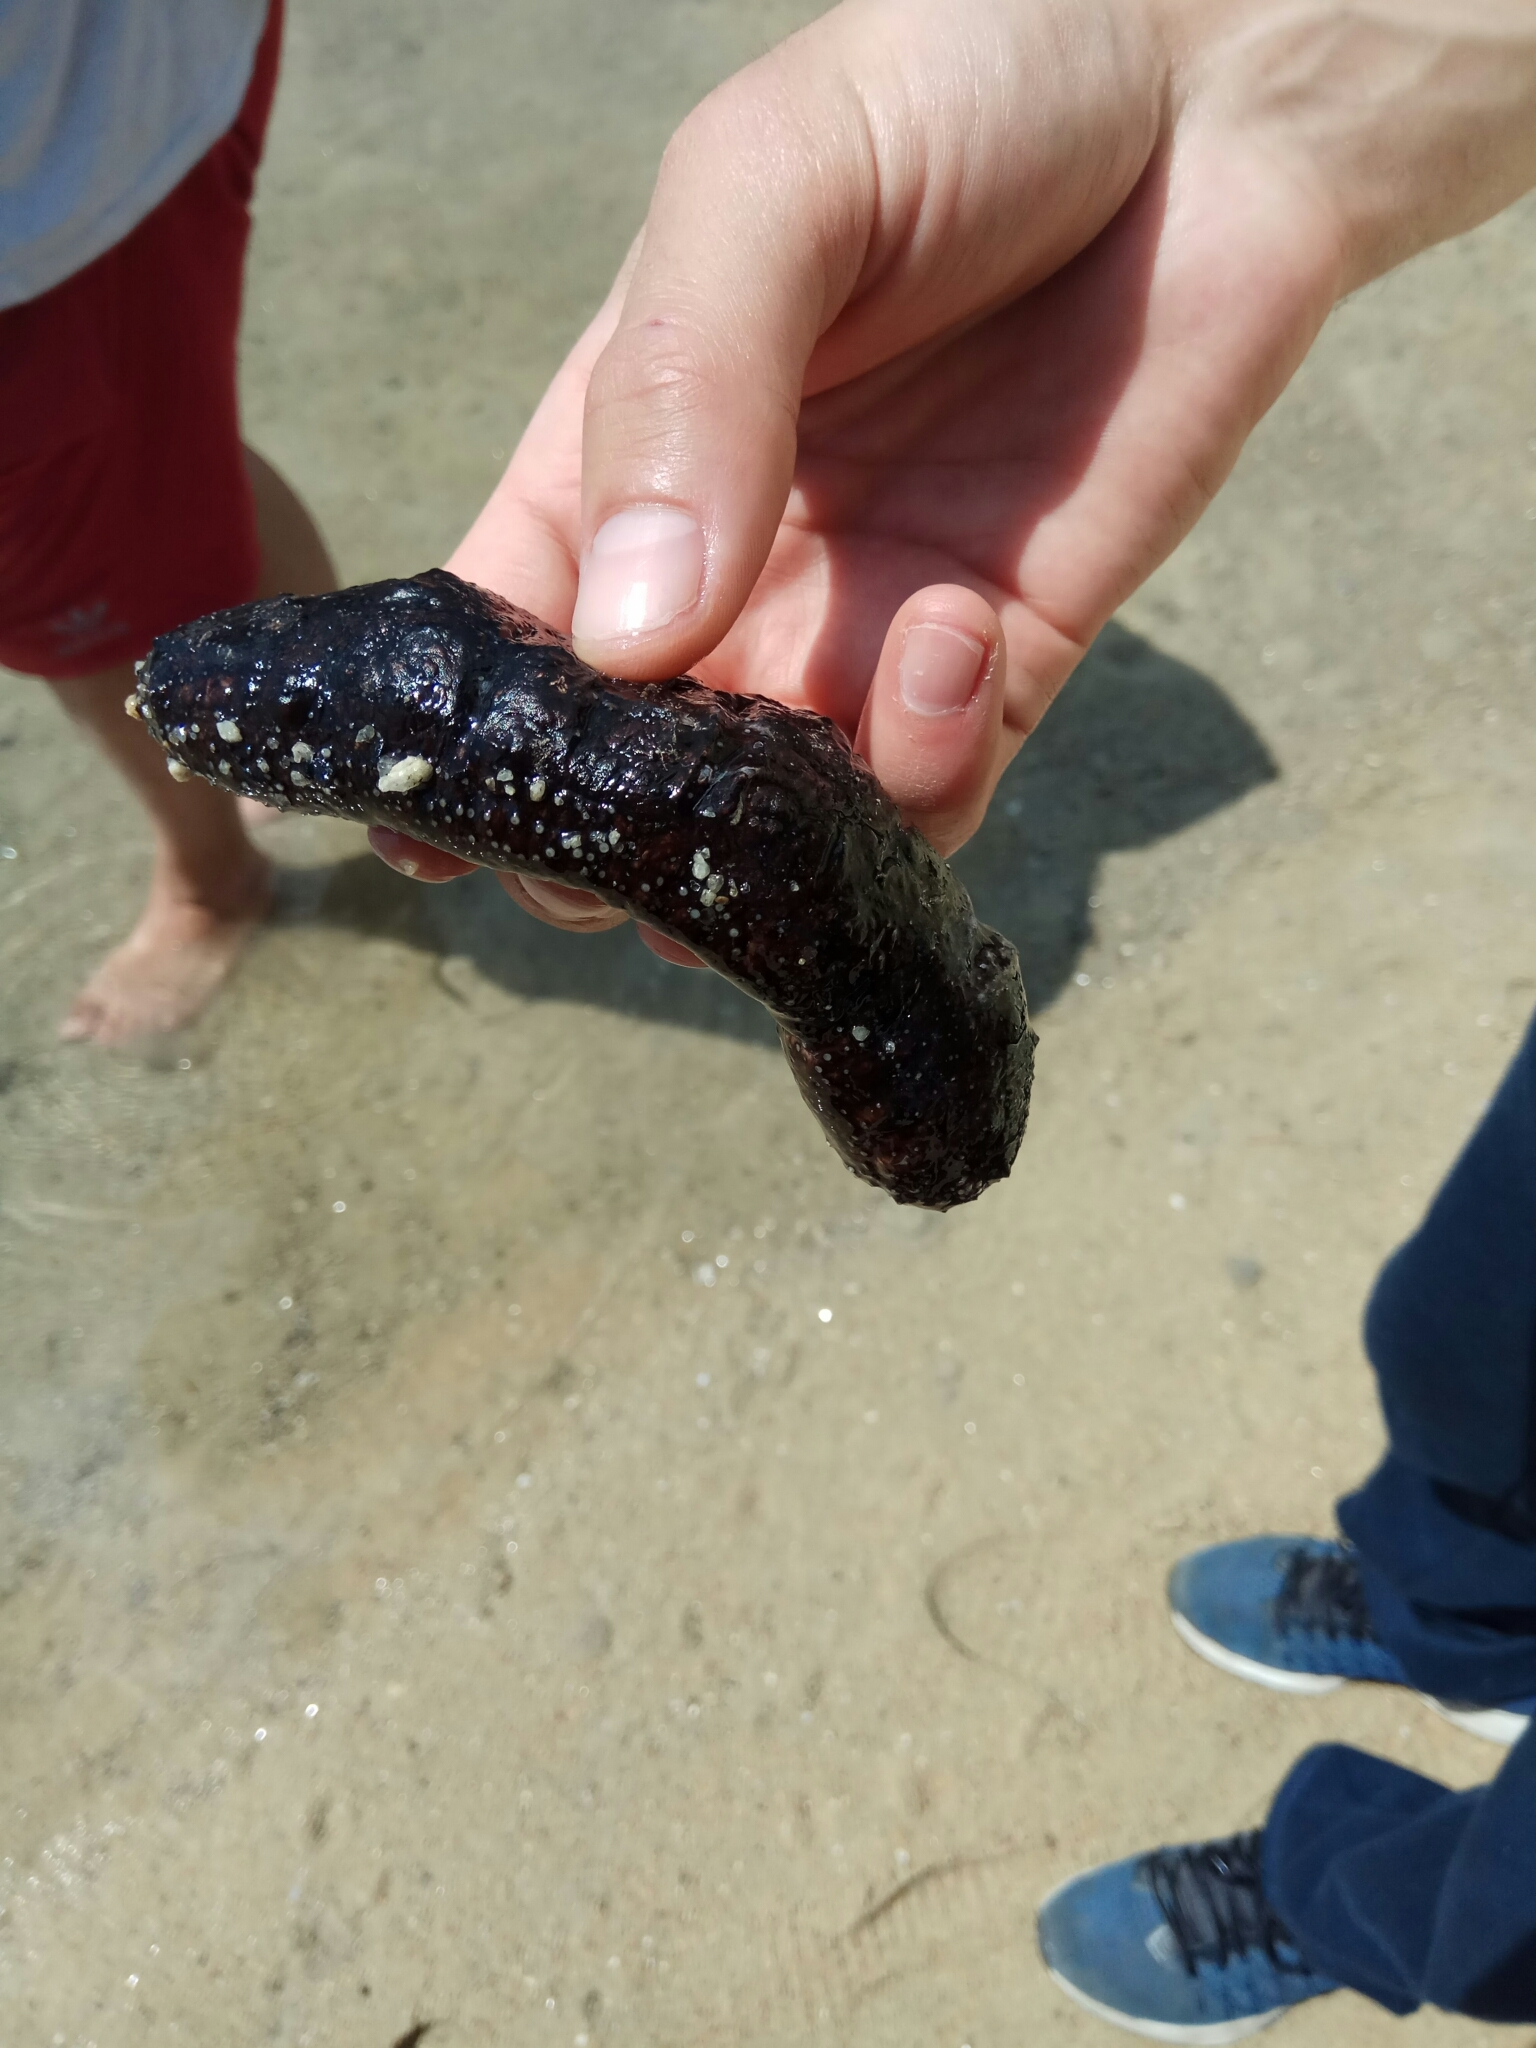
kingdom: Animalia
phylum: Echinodermata
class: Holothuroidea
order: Holothuriida
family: Holothuriidae
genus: Holothuria
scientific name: Holothuria poli
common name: White spot cucumber
